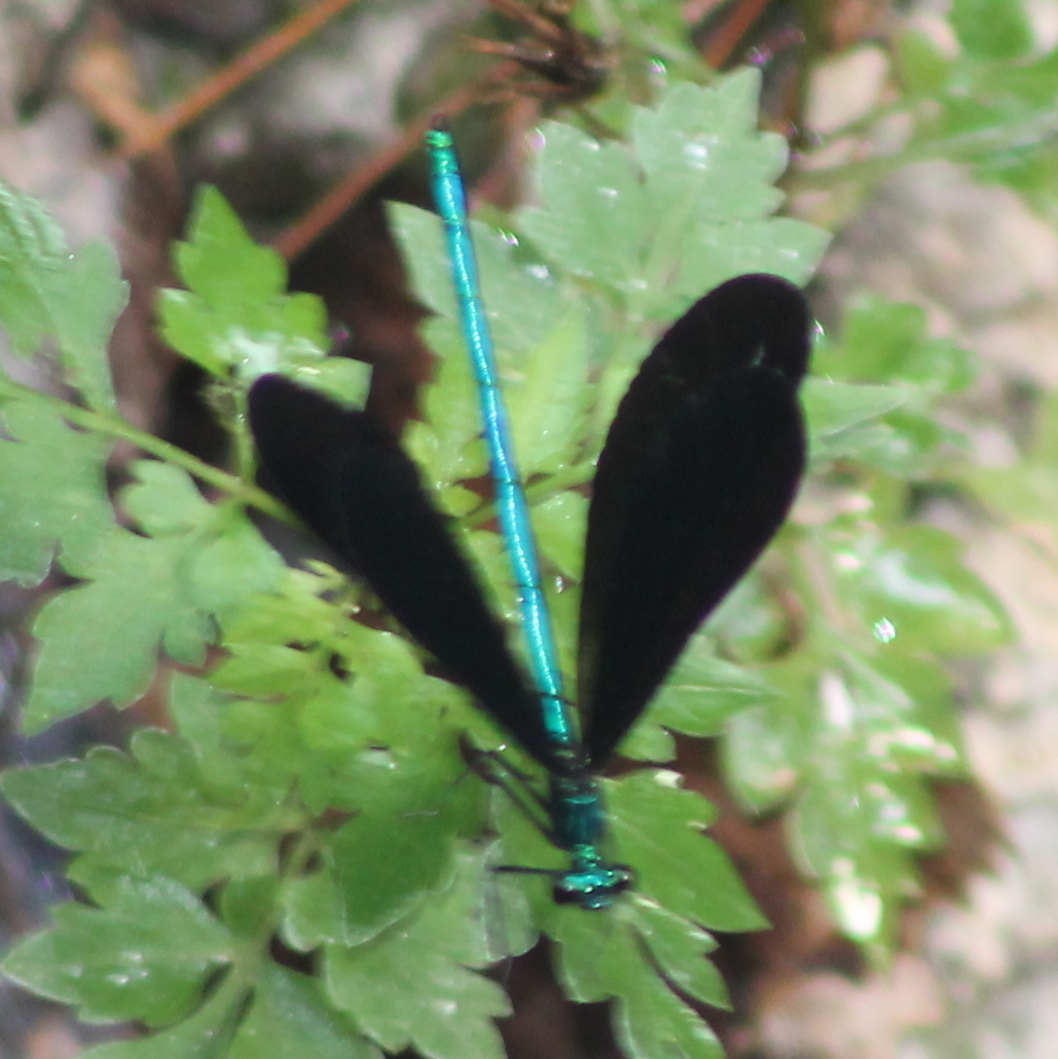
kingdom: Animalia
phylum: Arthropoda
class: Insecta
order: Odonata
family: Calopterygidae
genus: Calopteryx
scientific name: Calopteryx maculata
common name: Ebony jewelwing
